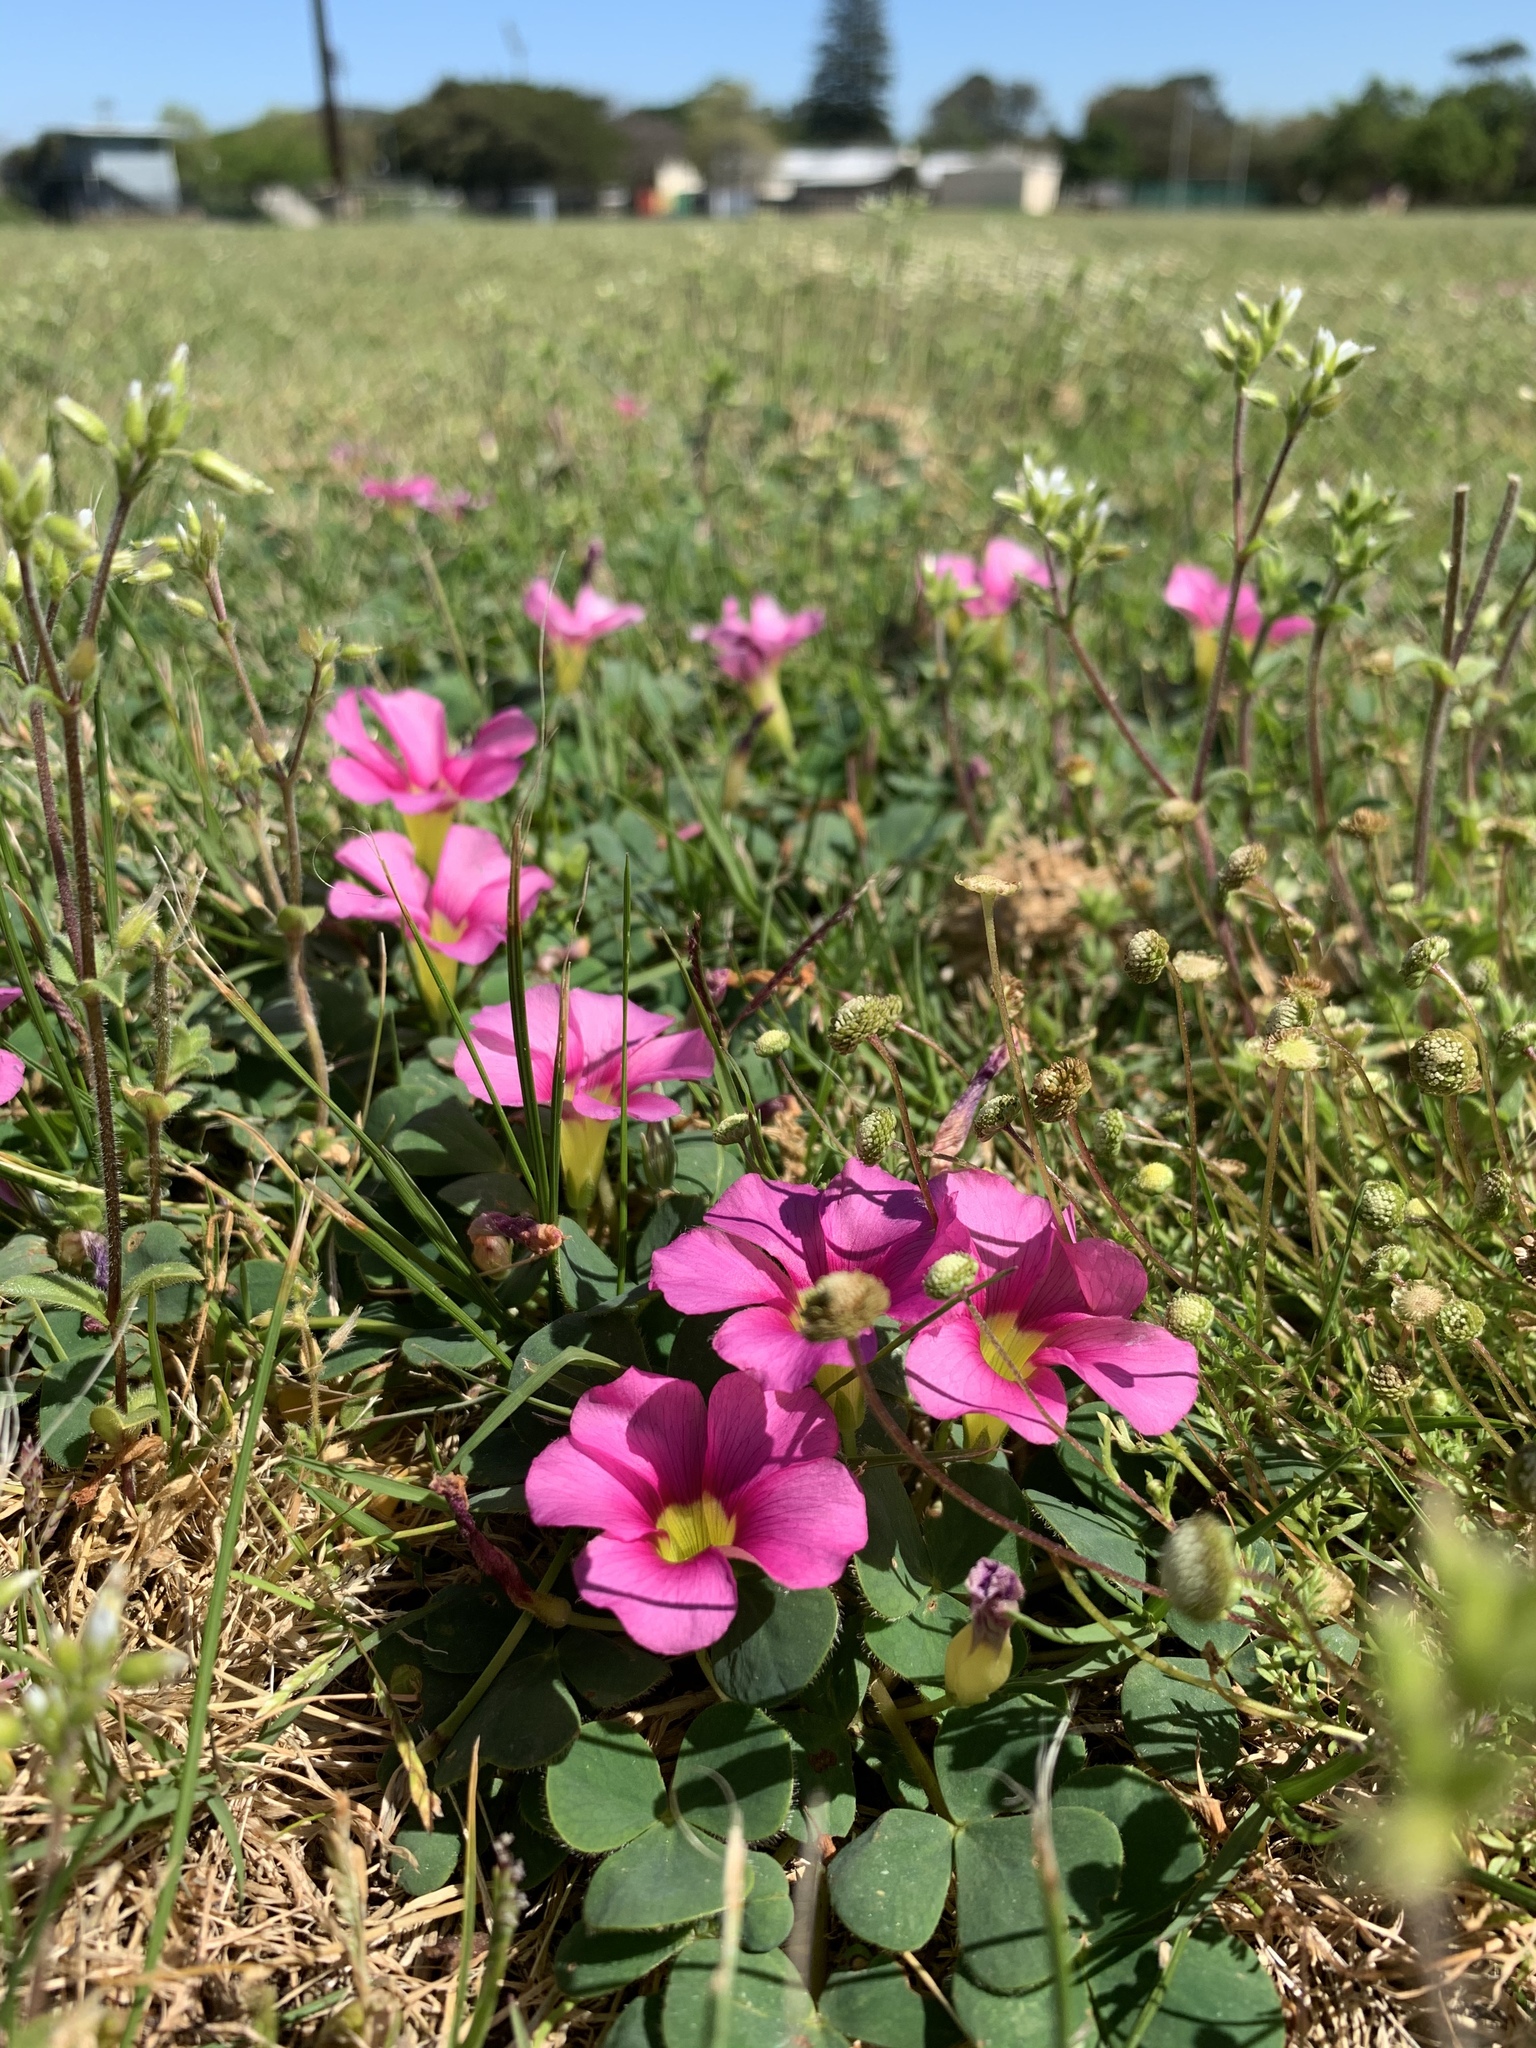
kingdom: Plantae
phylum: Tracheophyta
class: Magnoliopsida
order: Oxalidales
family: Oxalidaceae
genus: Oxalis
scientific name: Oxalis purpurea
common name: Purple woodsorrel
